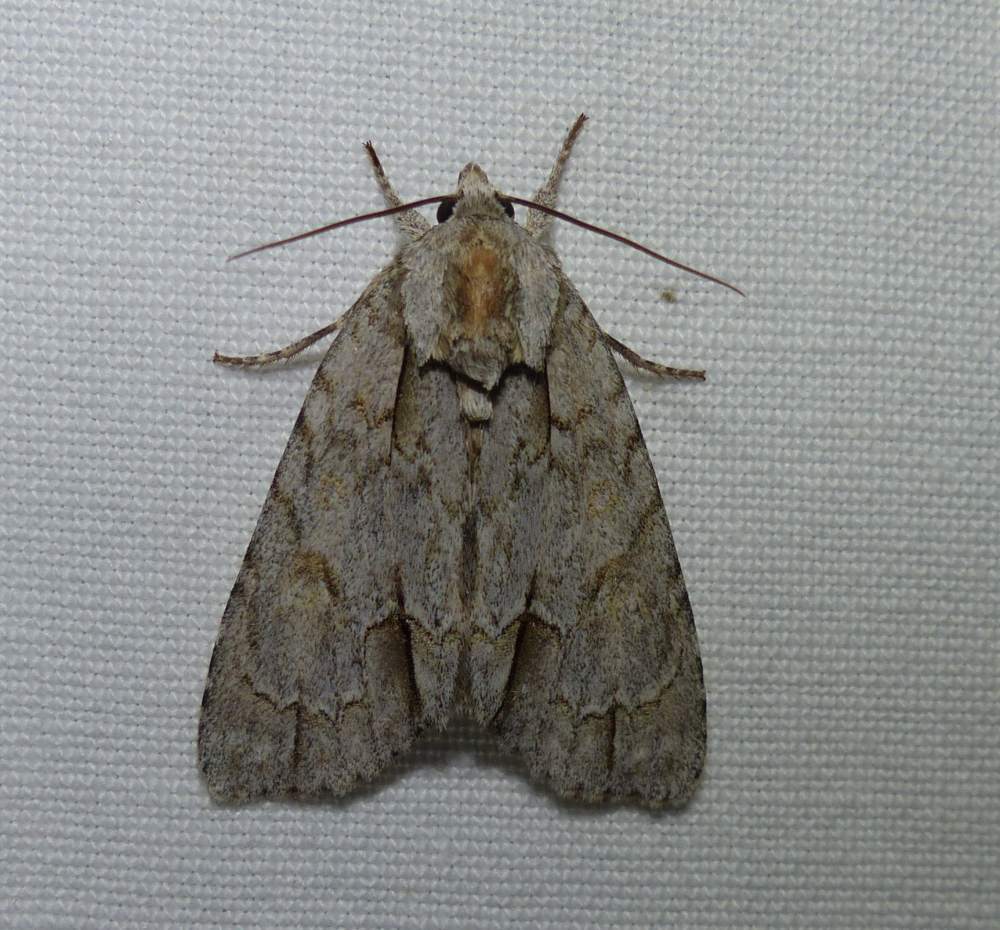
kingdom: Animalia
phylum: Arthropoda
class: Insecta
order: Lepidoptera
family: Noctuidae
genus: Acronicta
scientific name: Acronicta morula
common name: Ochre dagger
